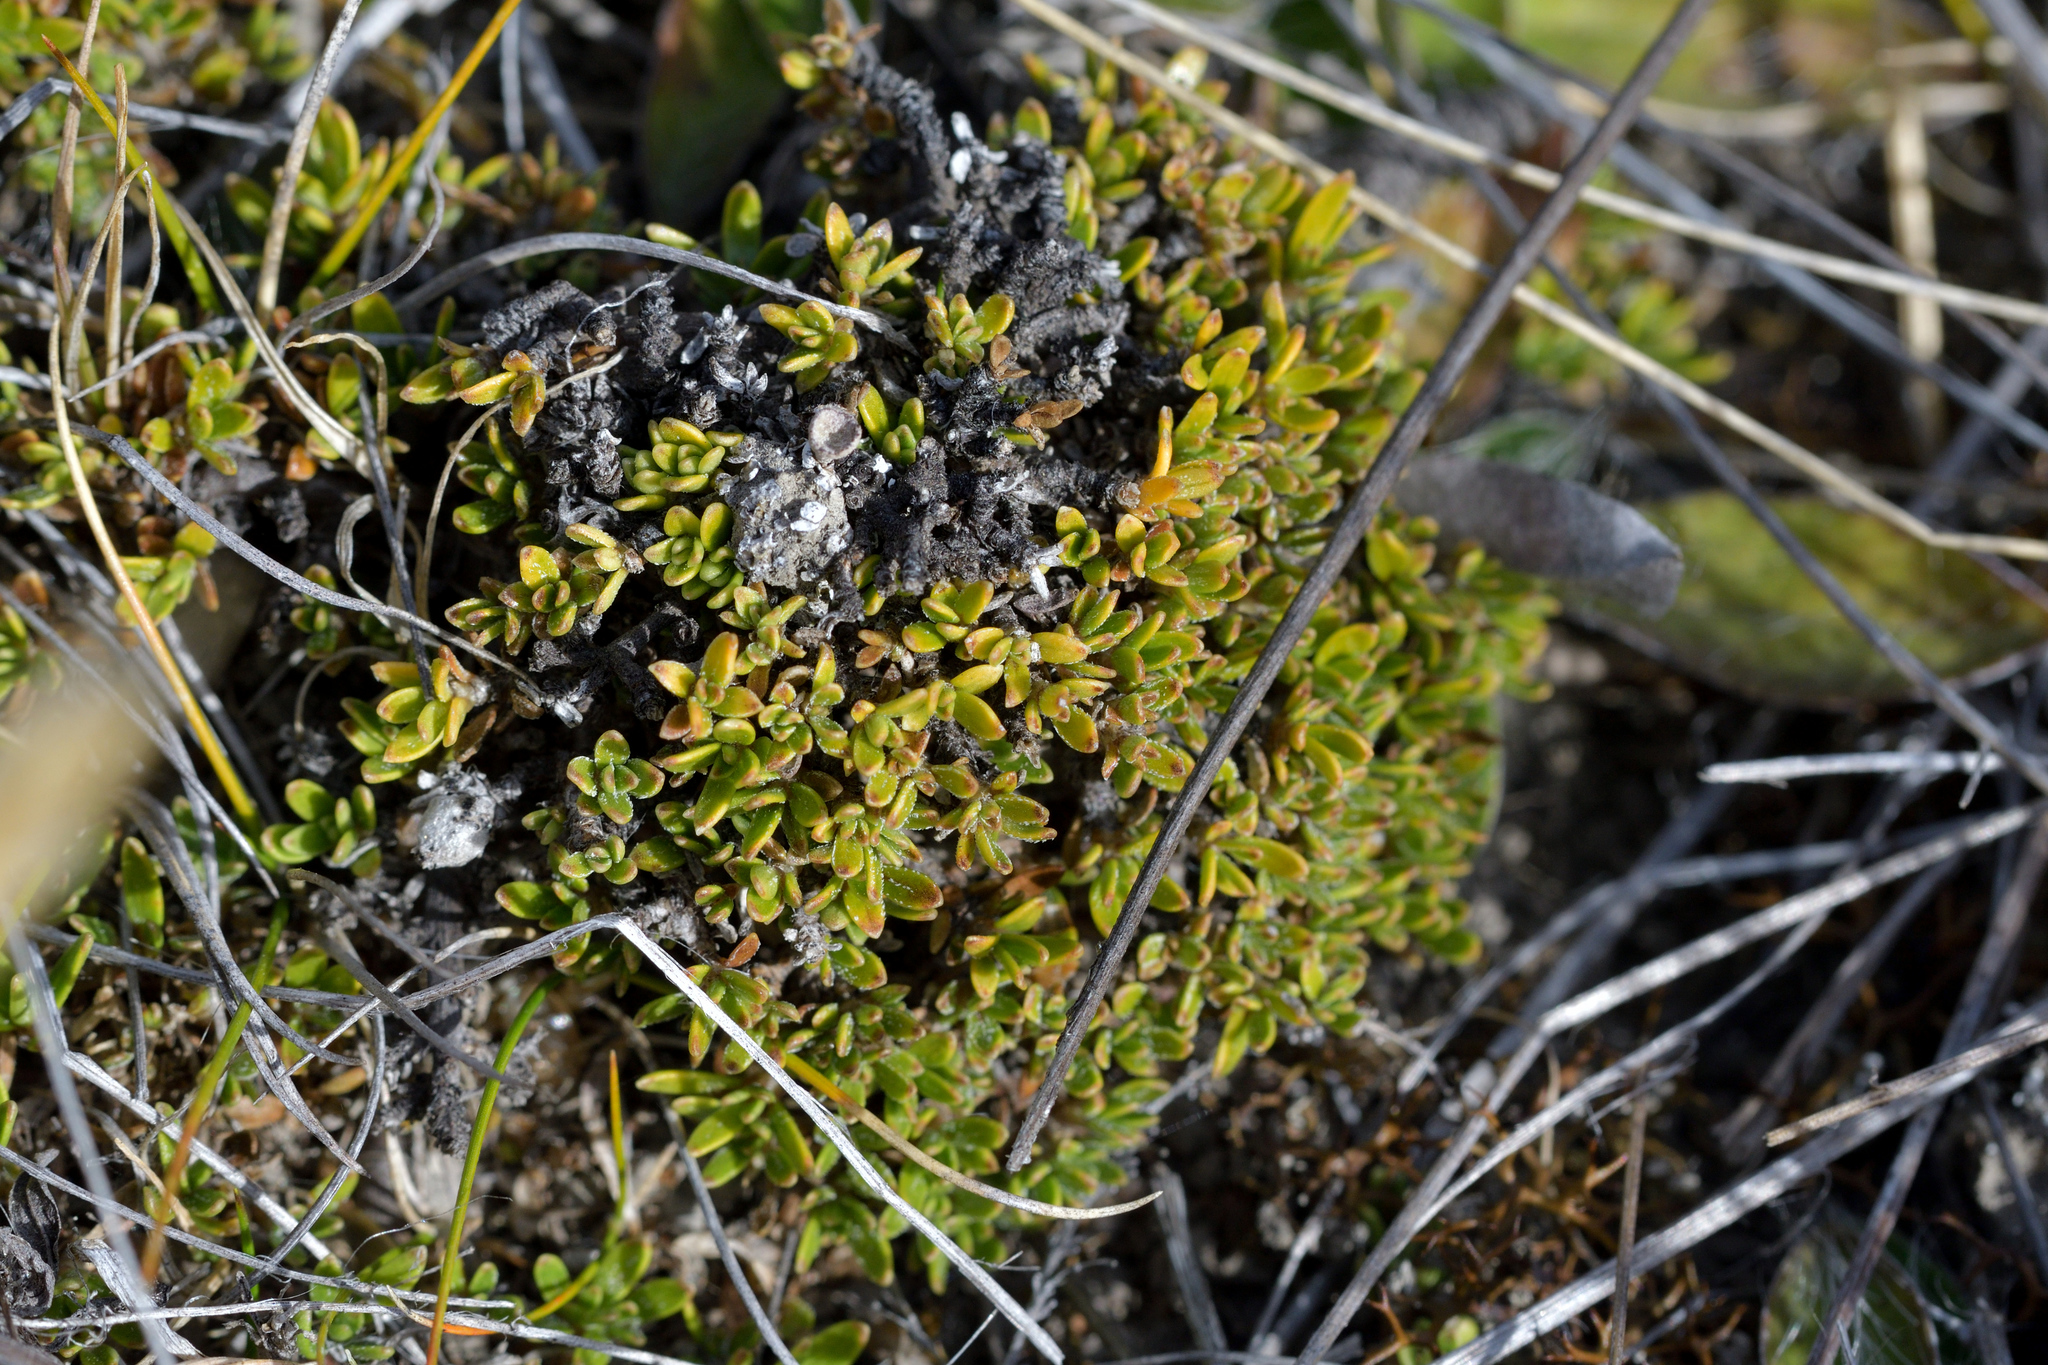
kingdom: Plantae
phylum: Tracheophyta
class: Magnoliopsida
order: Gentianales
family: Rubiaceae
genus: Coprosma
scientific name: Coprosma petriei
